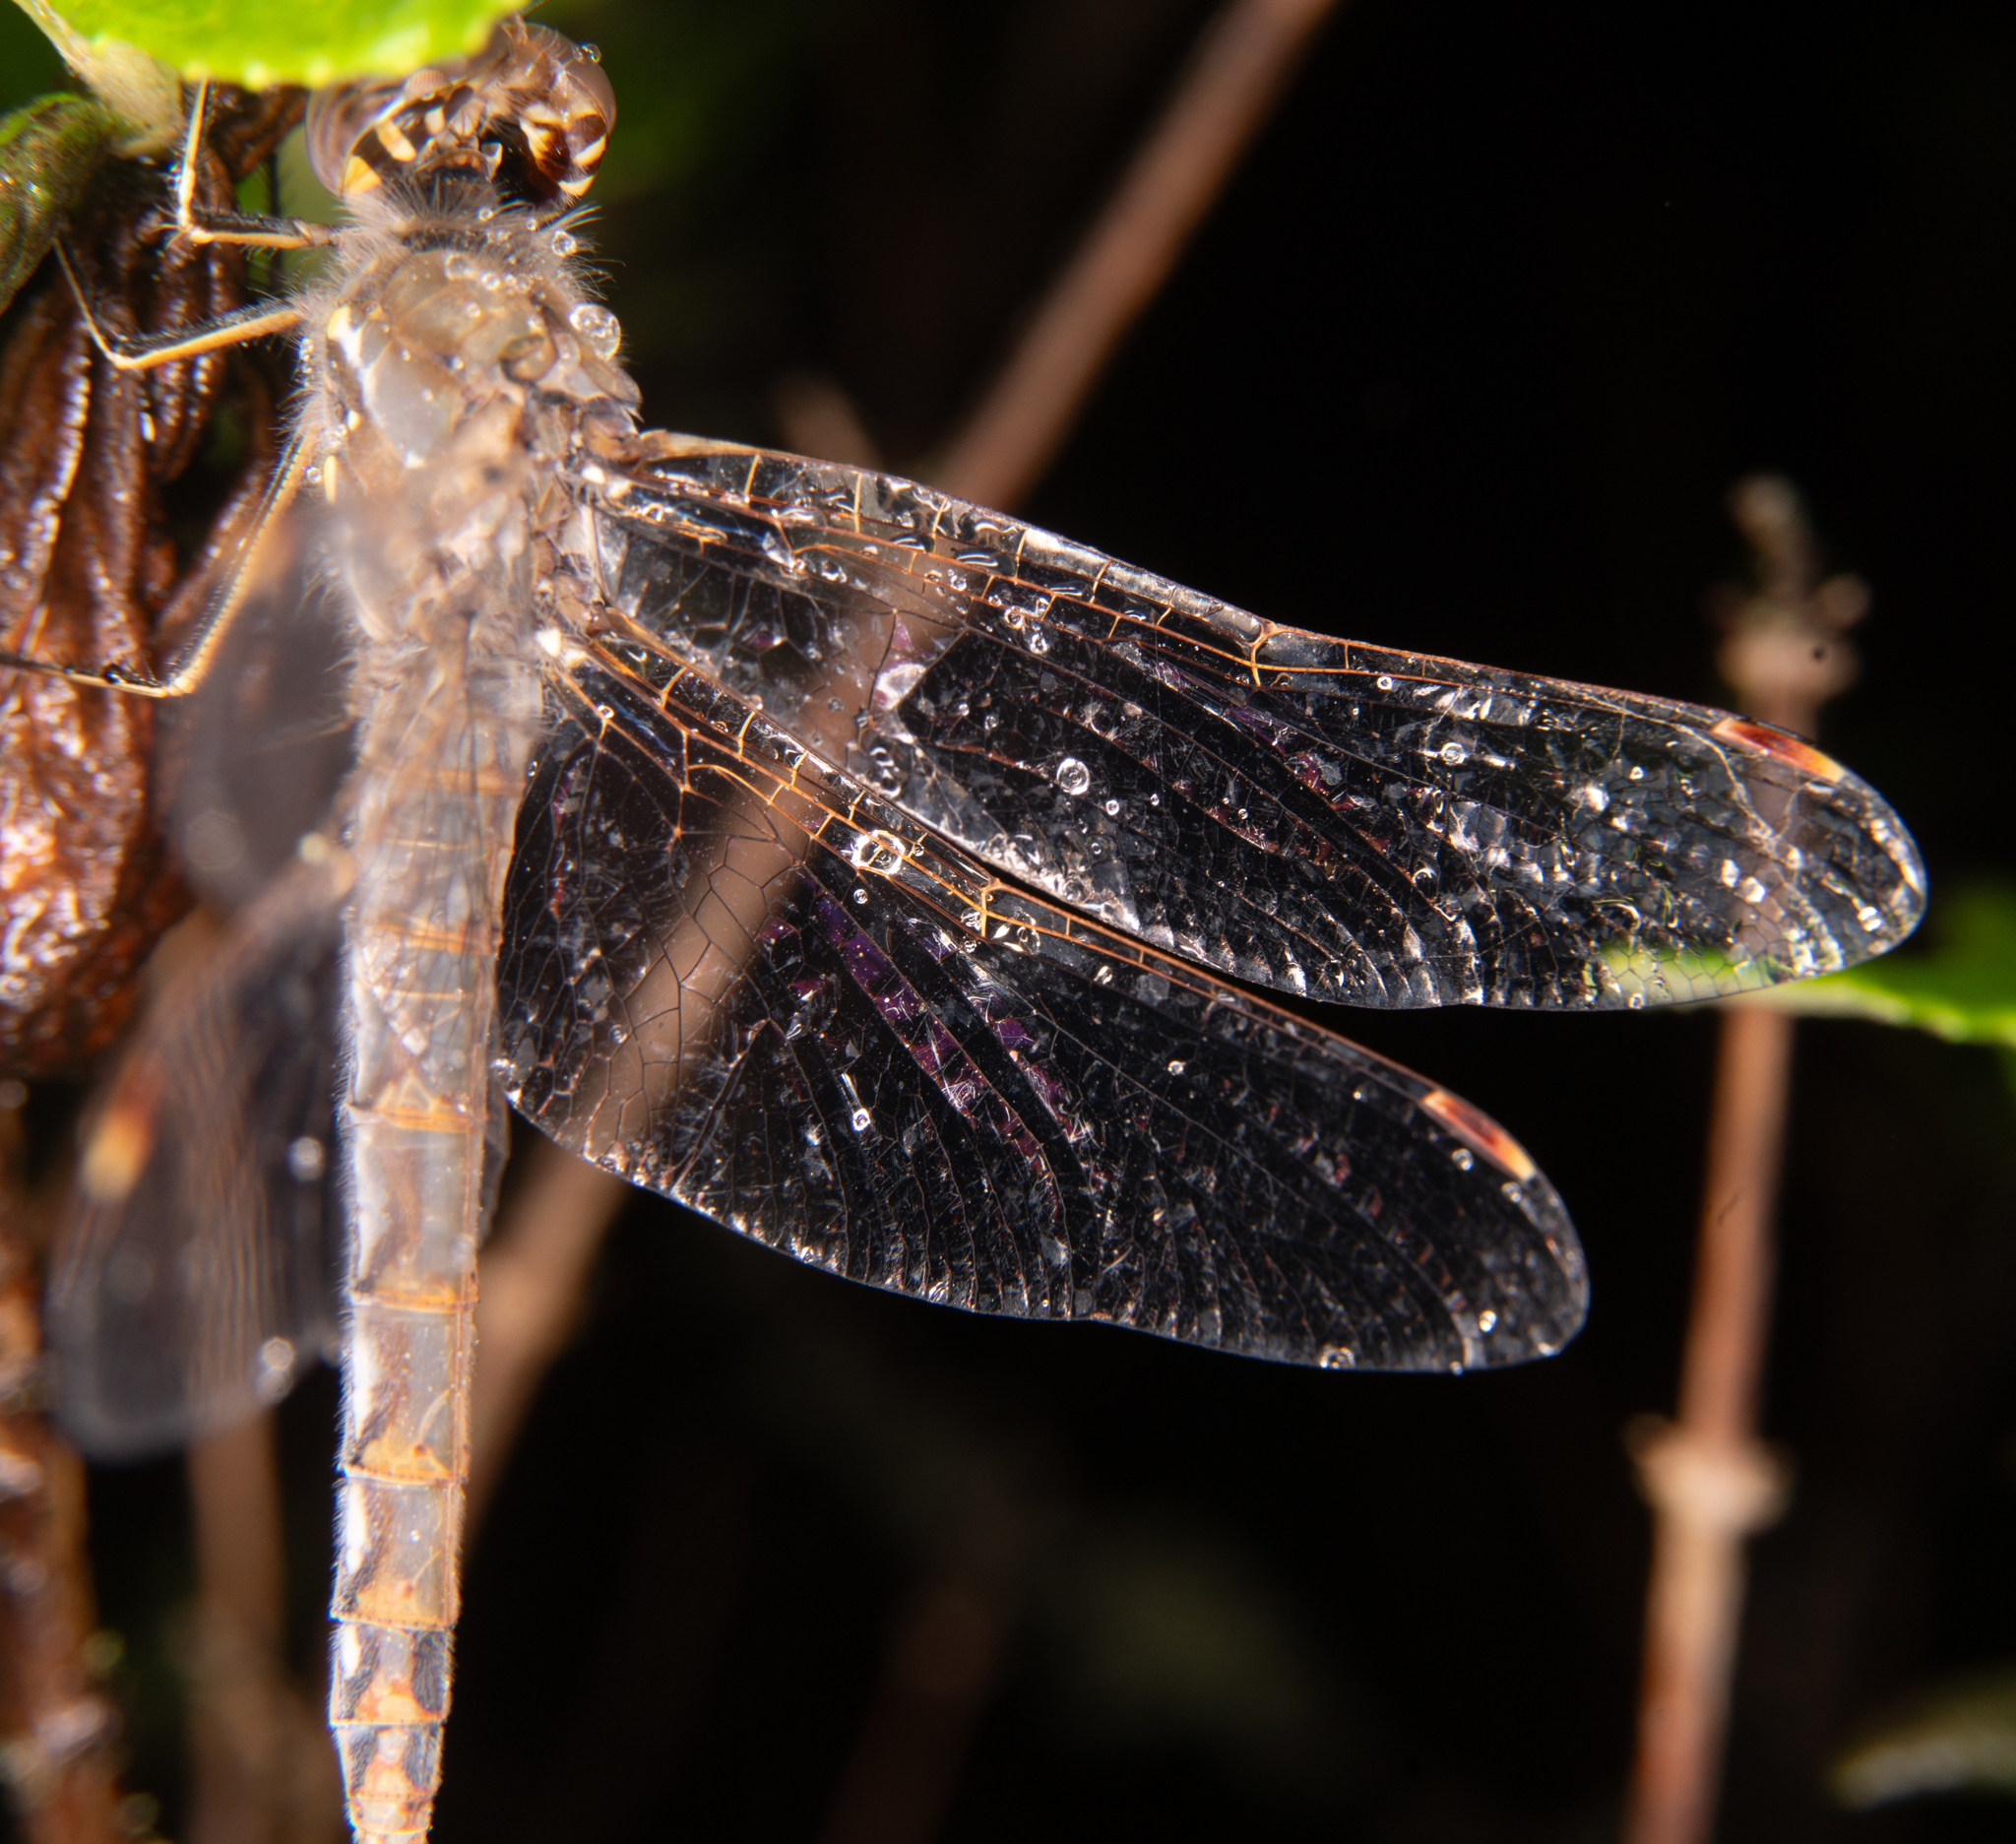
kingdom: Animalia
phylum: Arthropoda
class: Insecta
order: Odonata
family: Libellulidae
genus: Sympetrum
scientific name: Sympetrum corruptum
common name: Variegated meadowhawk
